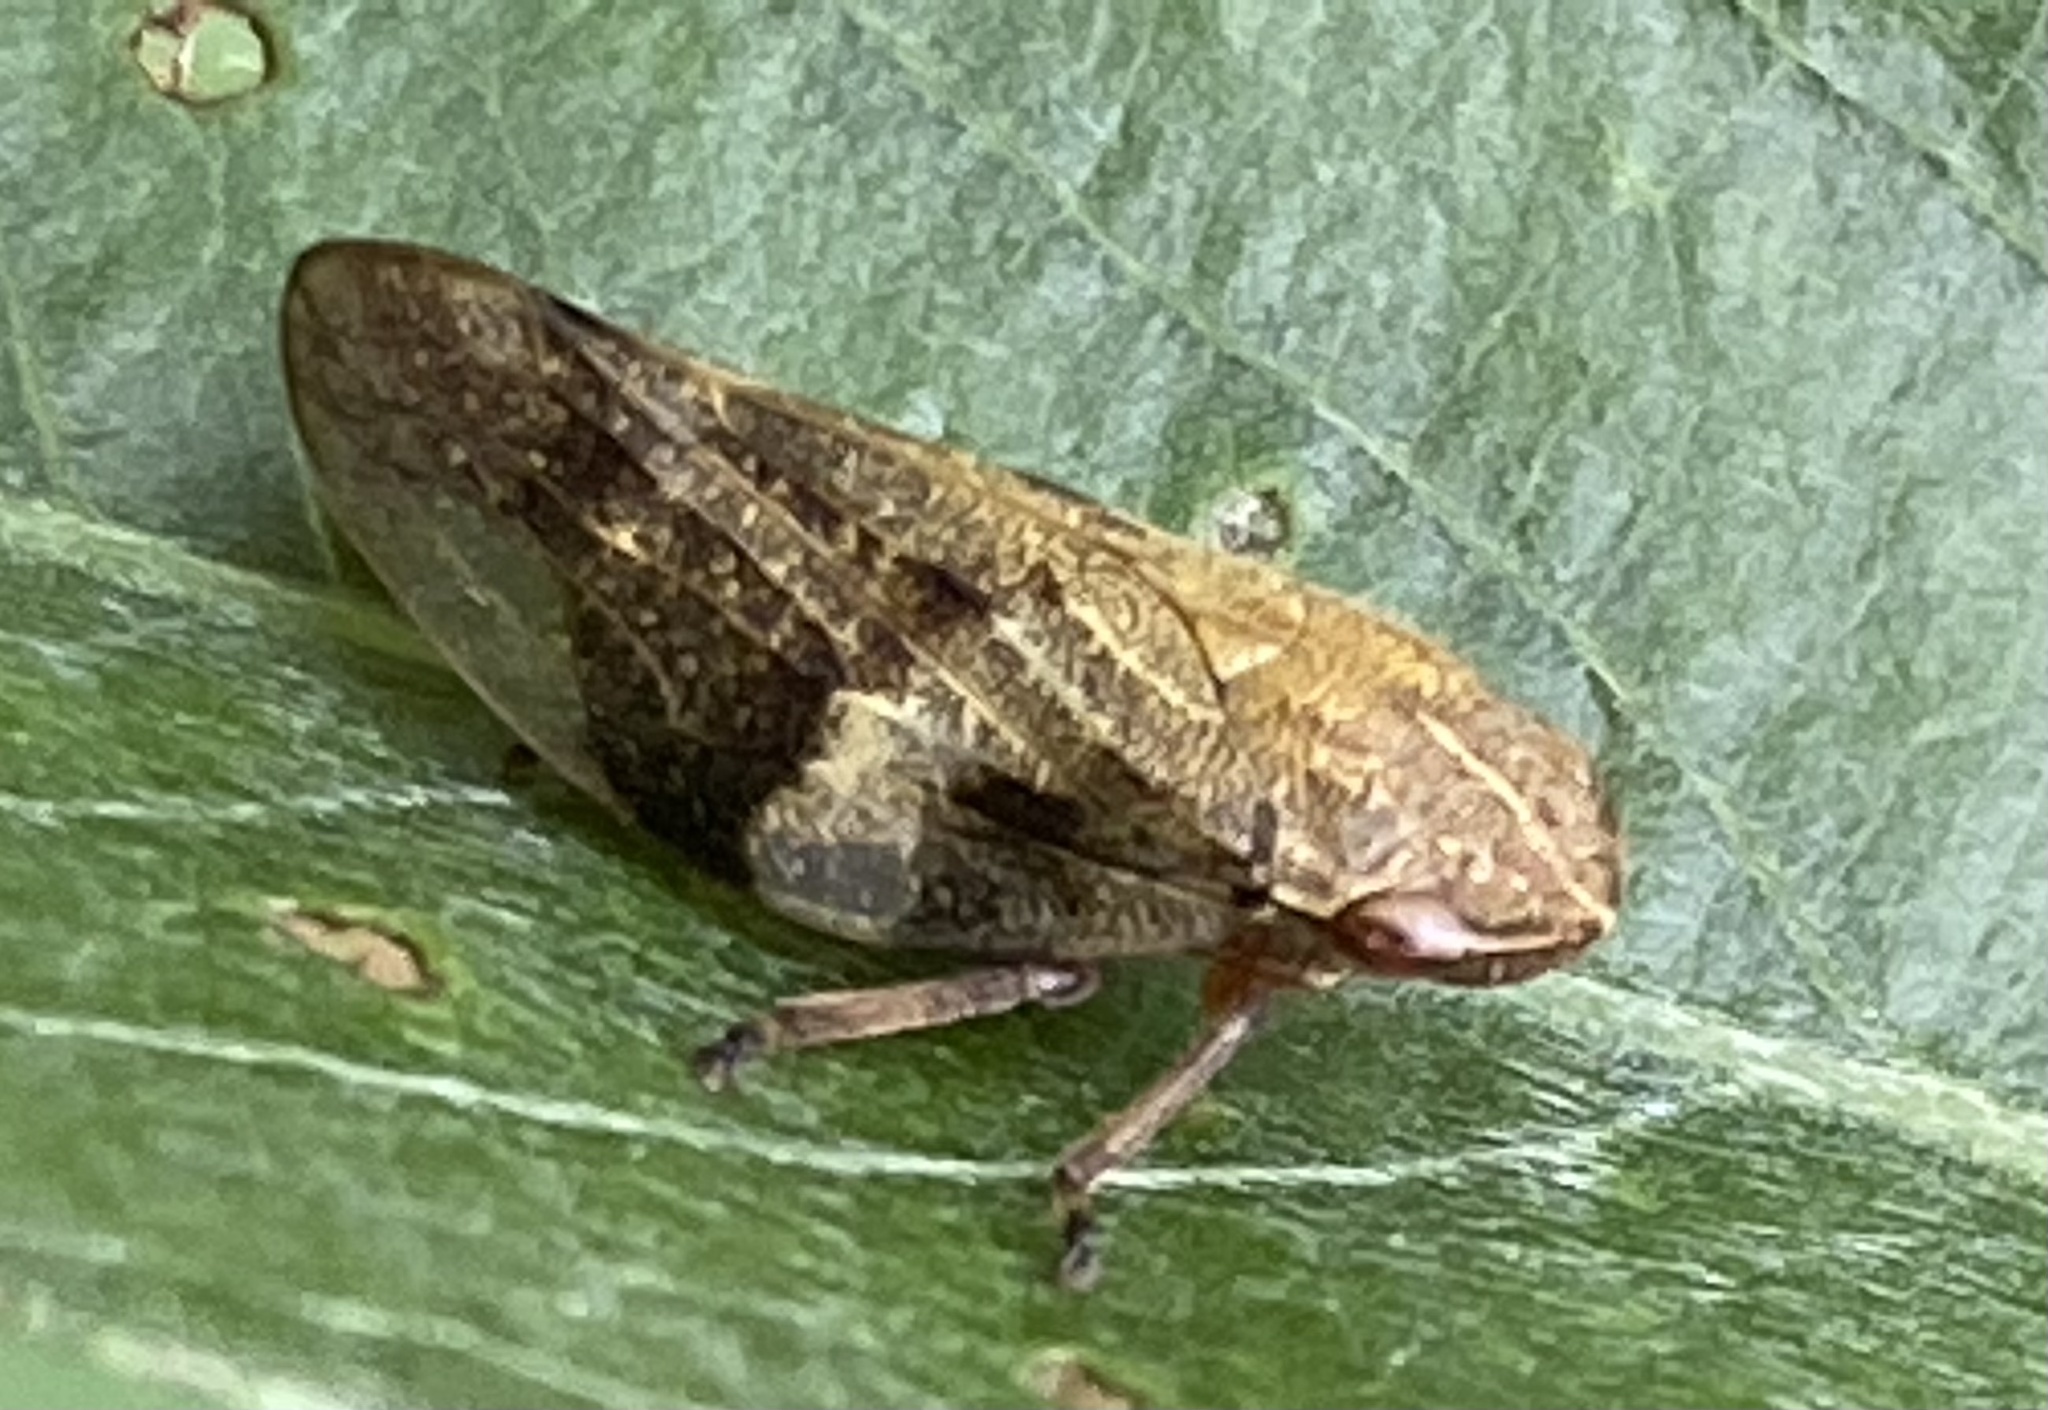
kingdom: Animalia
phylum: Arthropoda
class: Insecta
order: Hemiptera
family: Aphrophoridae
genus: Aphrophora
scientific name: Aphrophora alni
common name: European alder spittlebug
